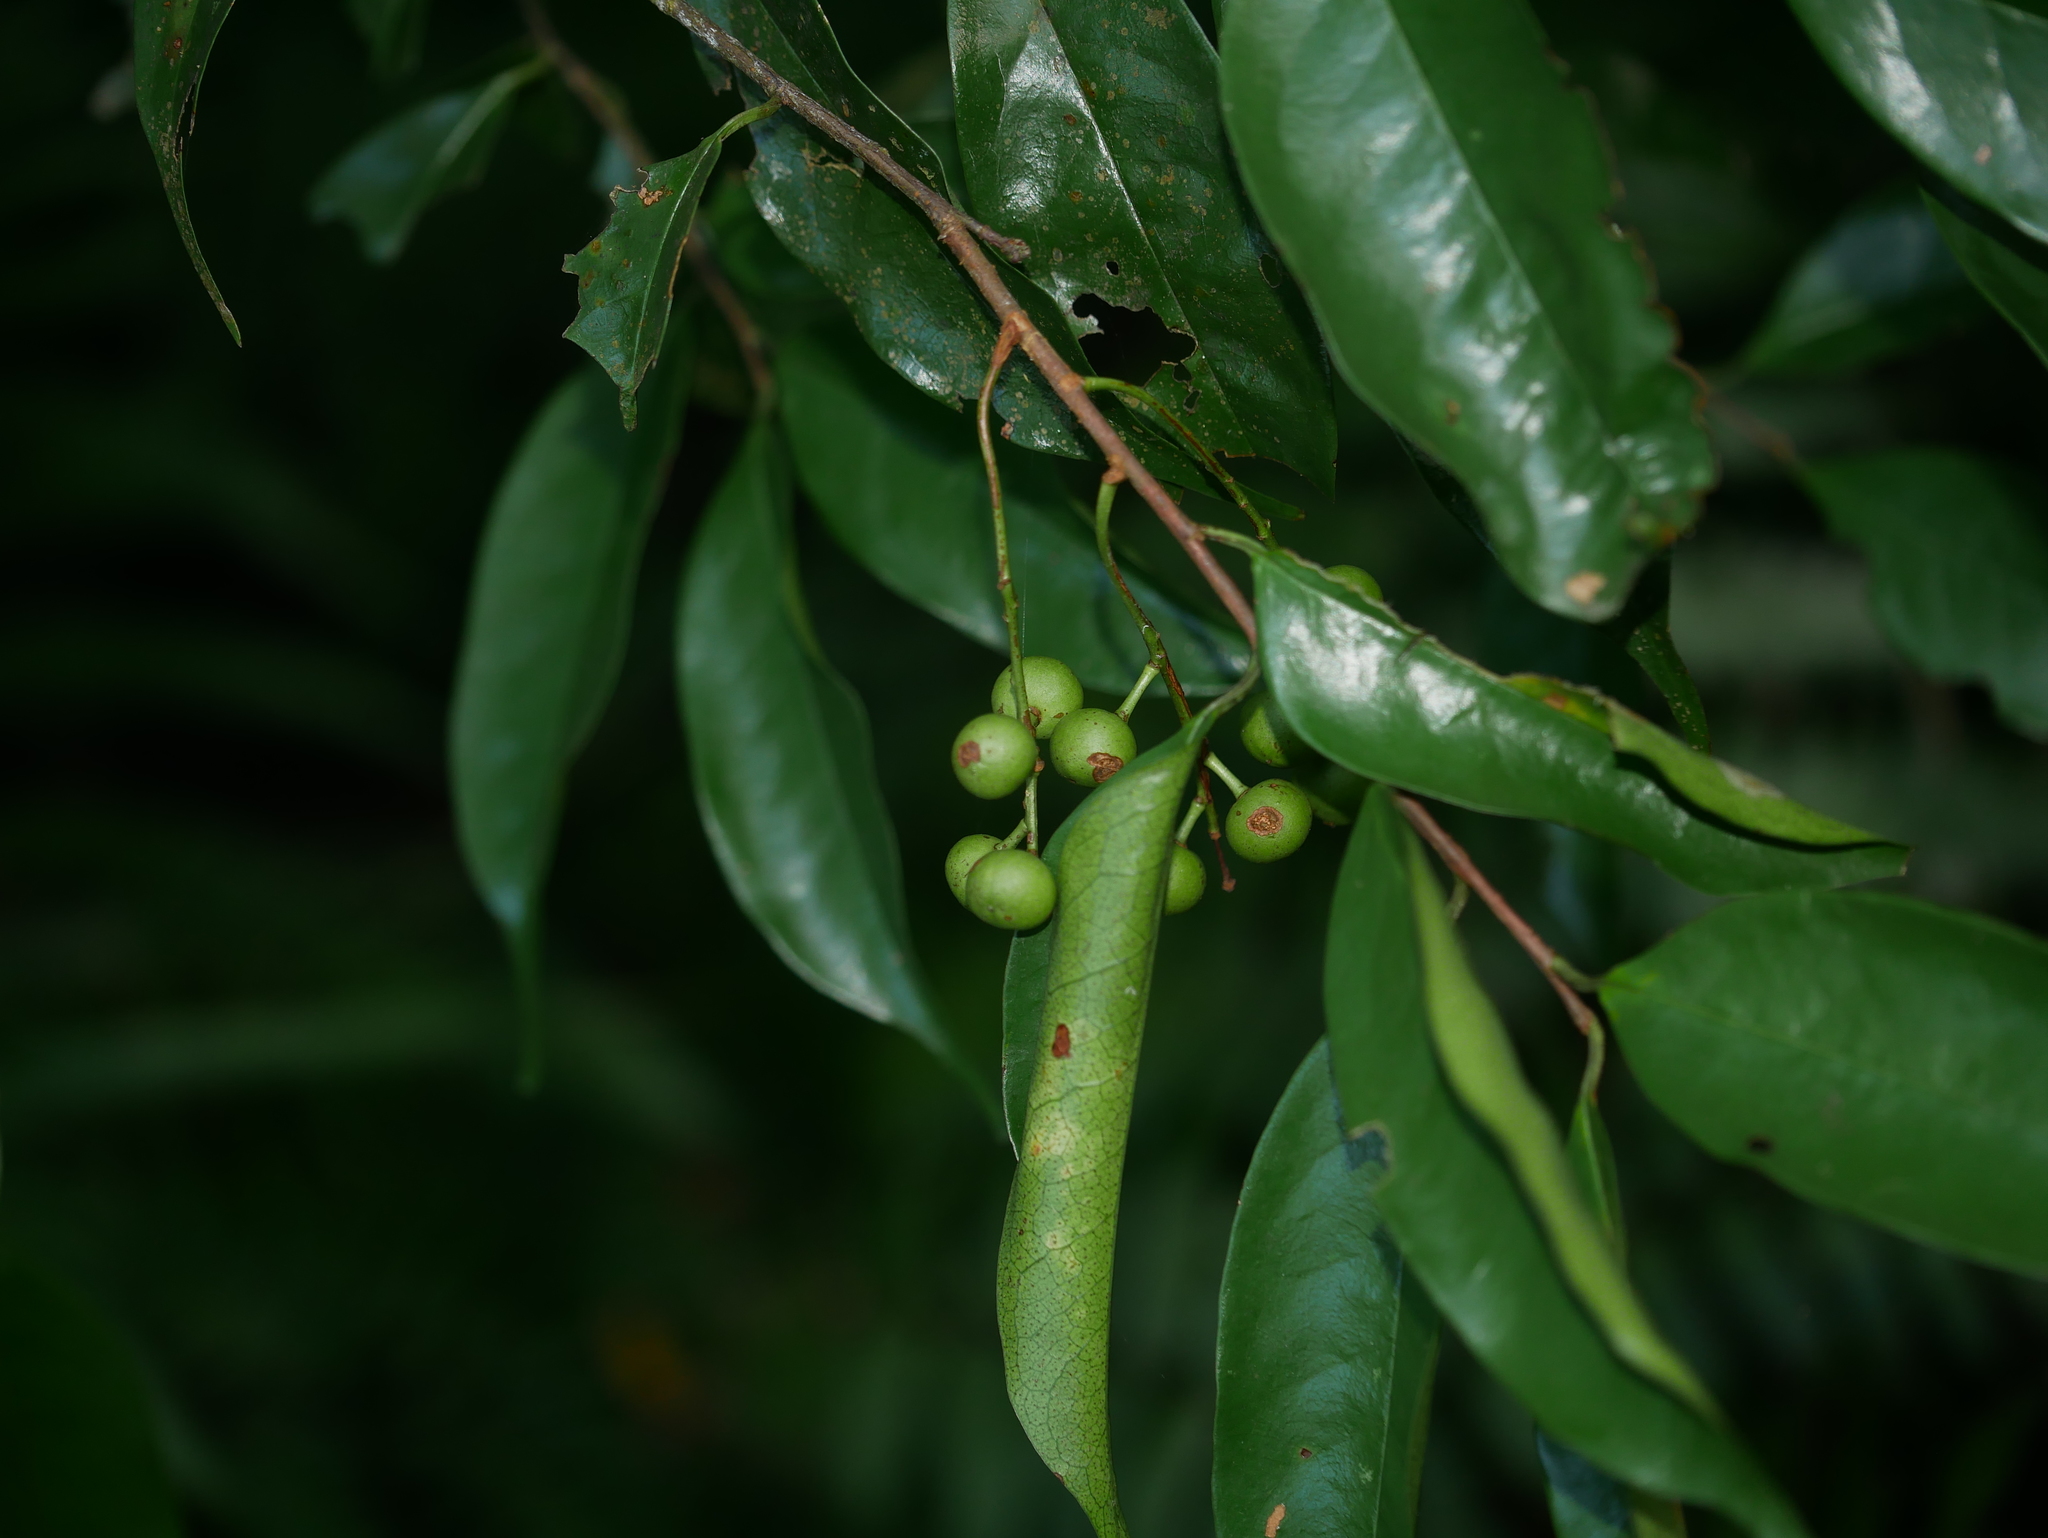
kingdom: Plantae
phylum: Tracheophyta
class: Magnoliopsida
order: Rosales
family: Rosaceae
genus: Prunus
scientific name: Prunus phaeosticta
